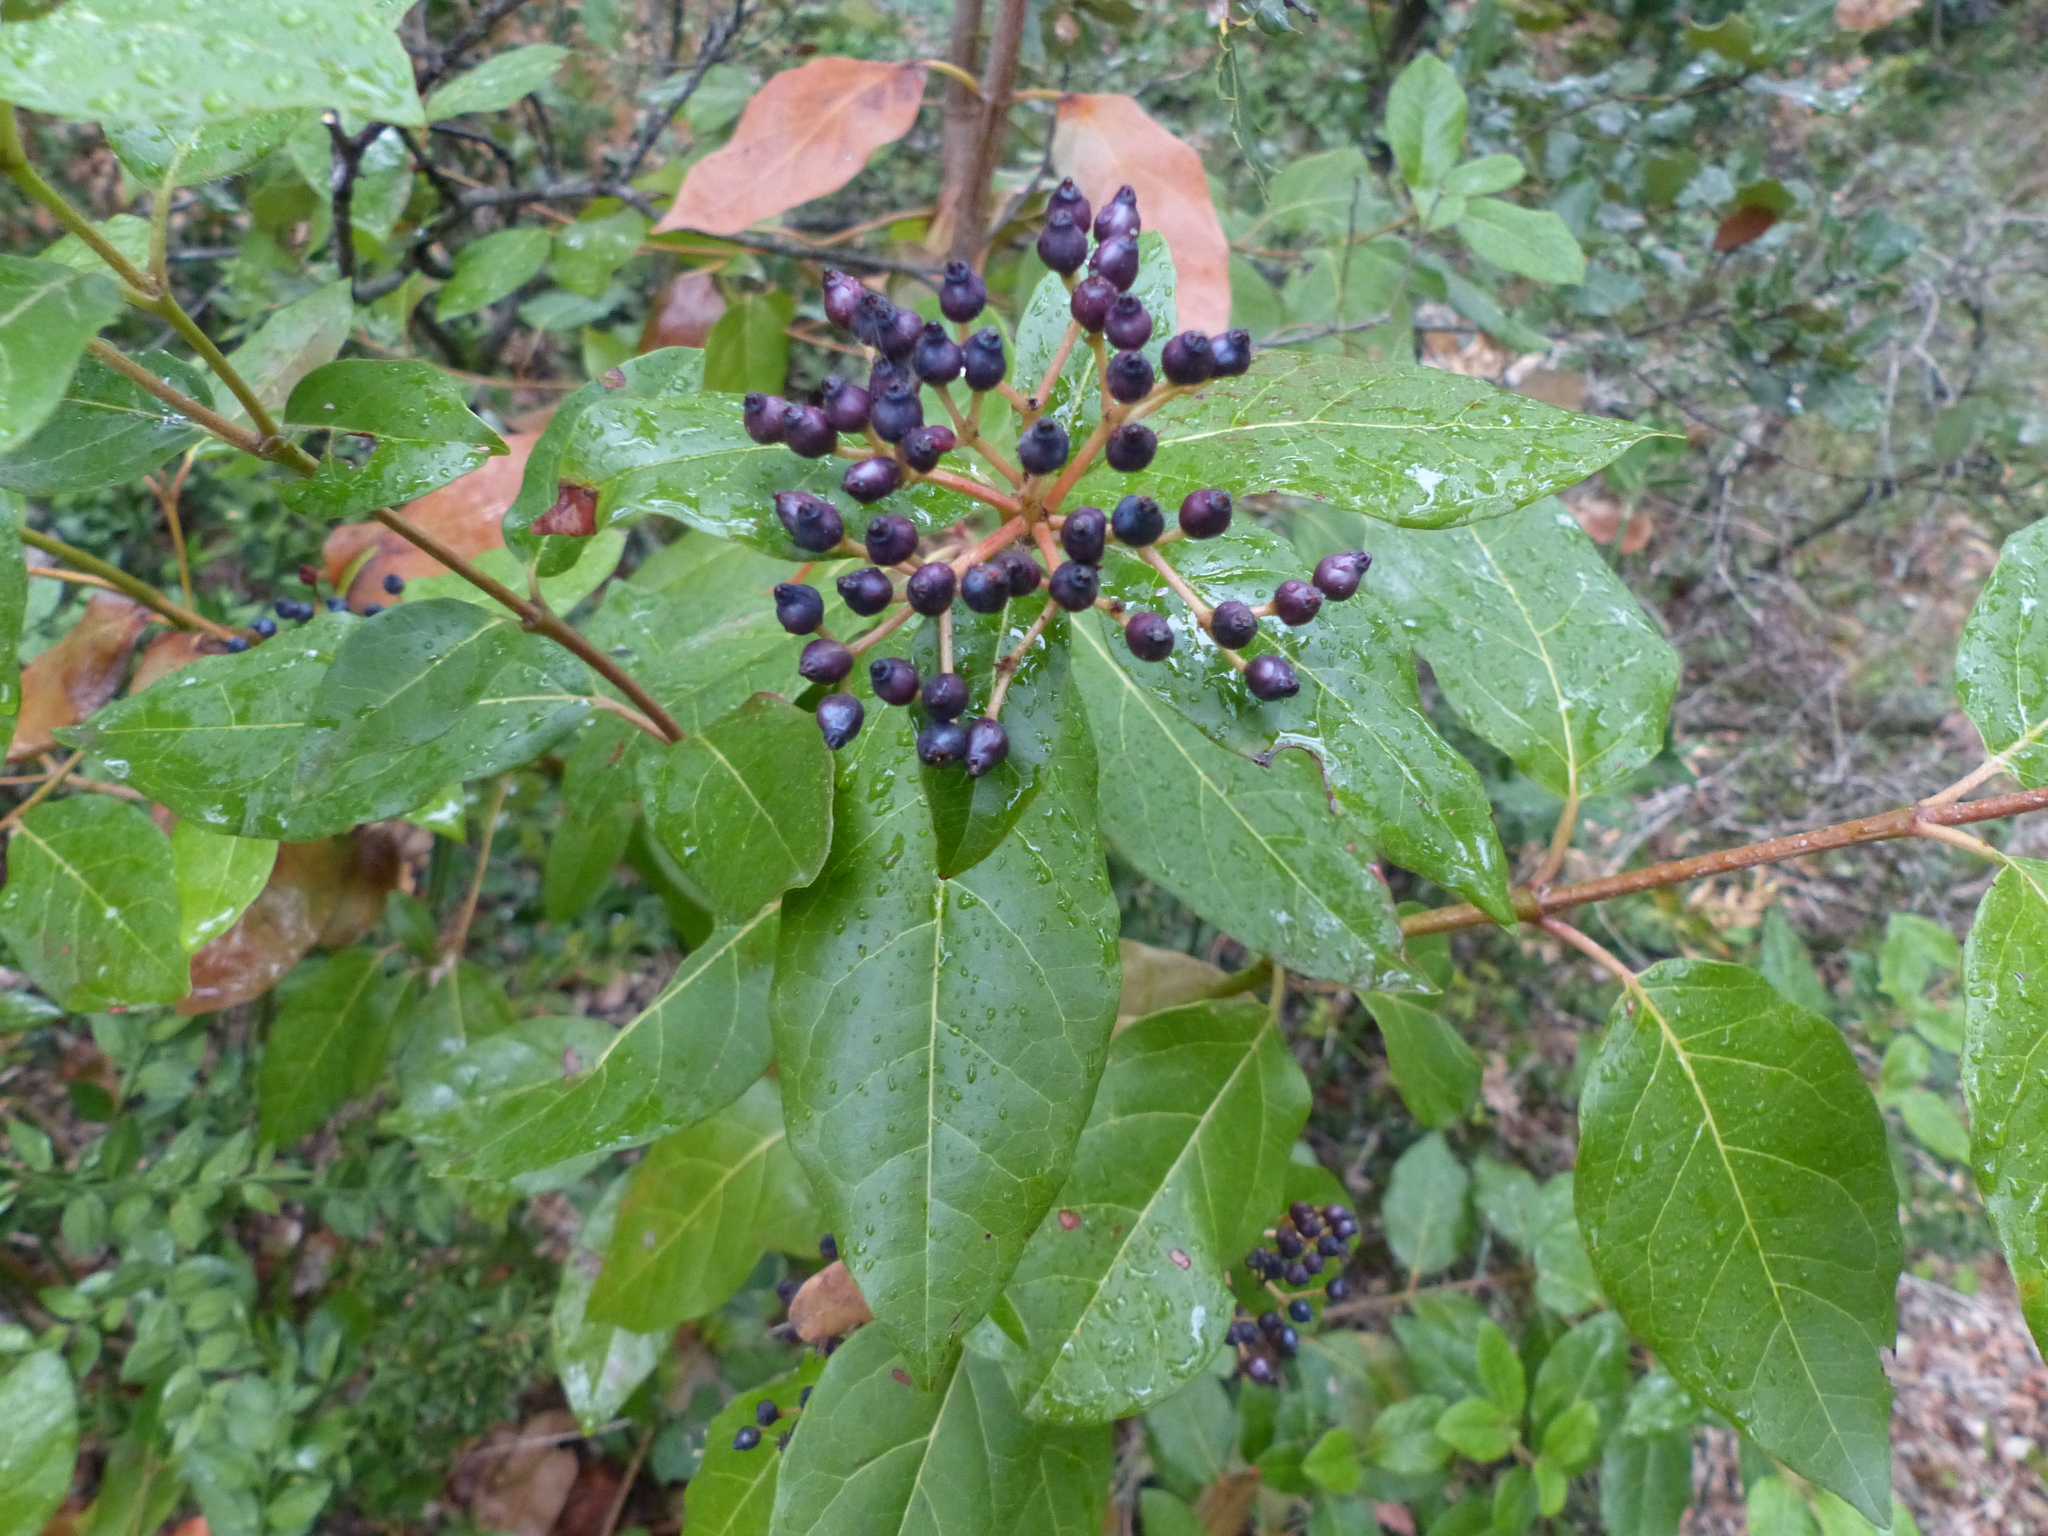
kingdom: Plantae
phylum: Tracheophyta
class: Magnoliopsida
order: Dipsacales
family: Viburnaceae
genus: Viburnum
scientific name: Viburnum tinus
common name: Laurustinus
